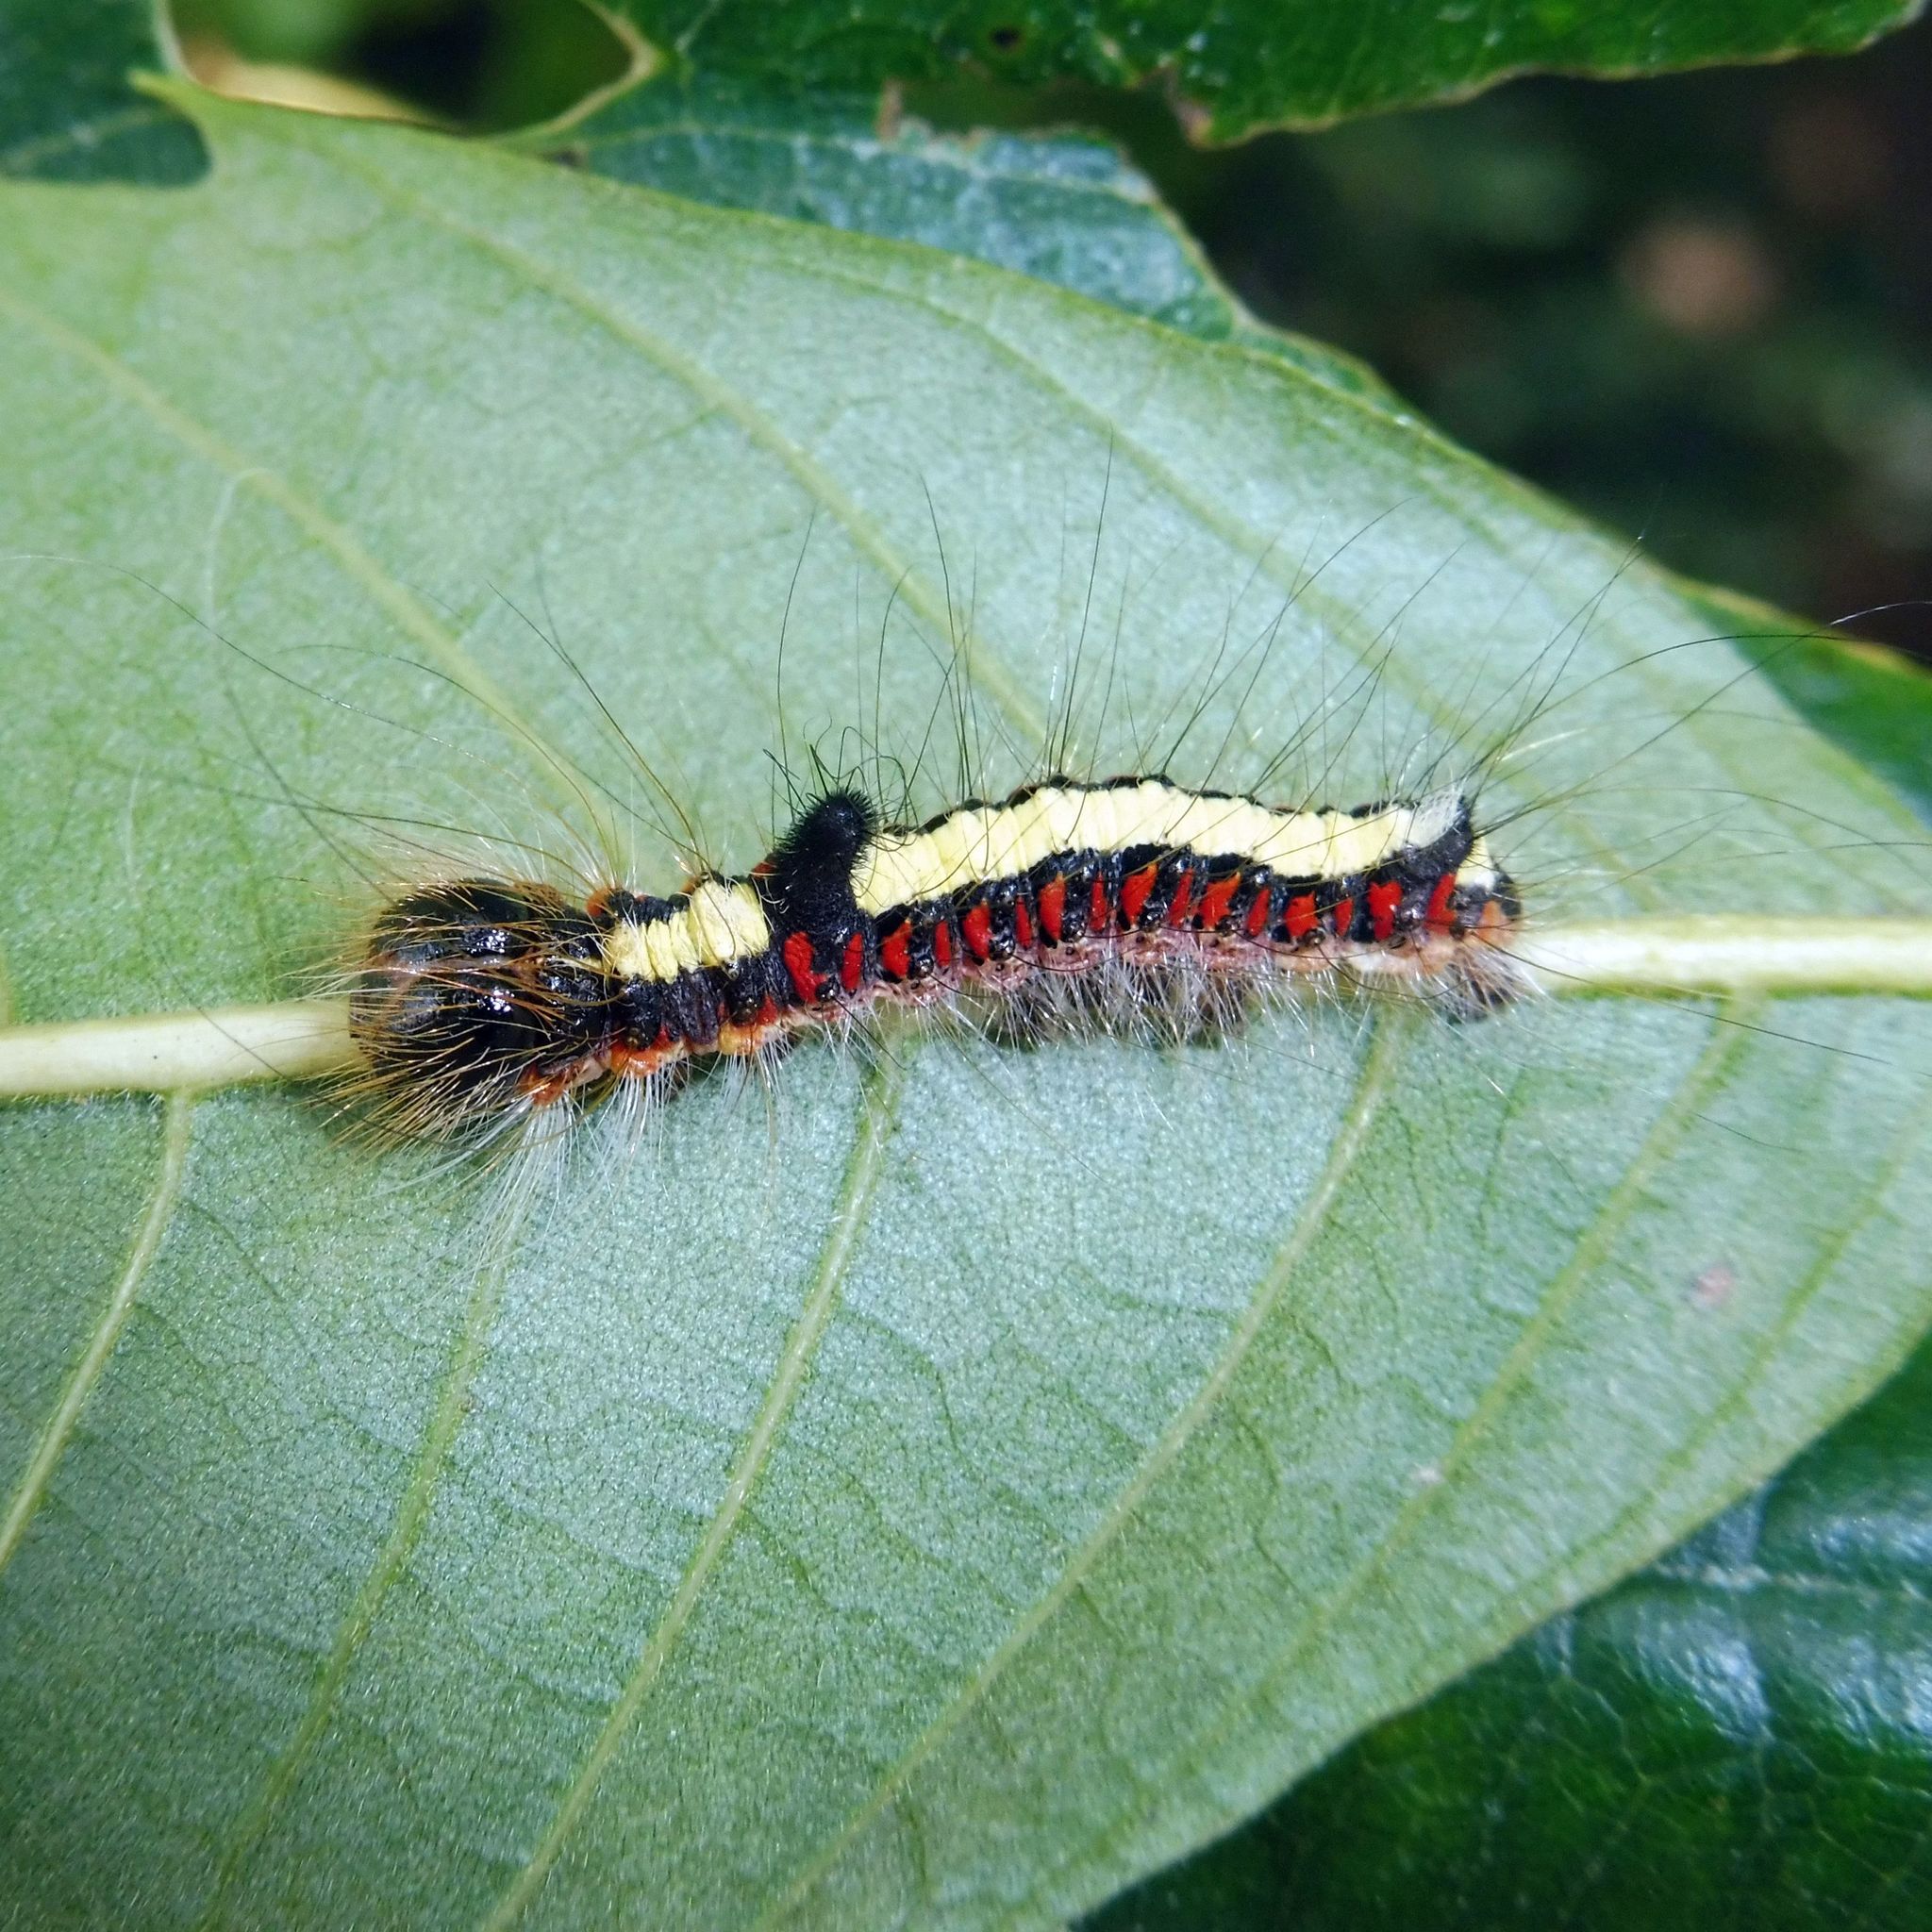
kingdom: Animalia
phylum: Arthropoda
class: Insecta
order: Lepidoptera
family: Noctuidae
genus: Acronicta
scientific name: Acronicta psi
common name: Grey dagger
